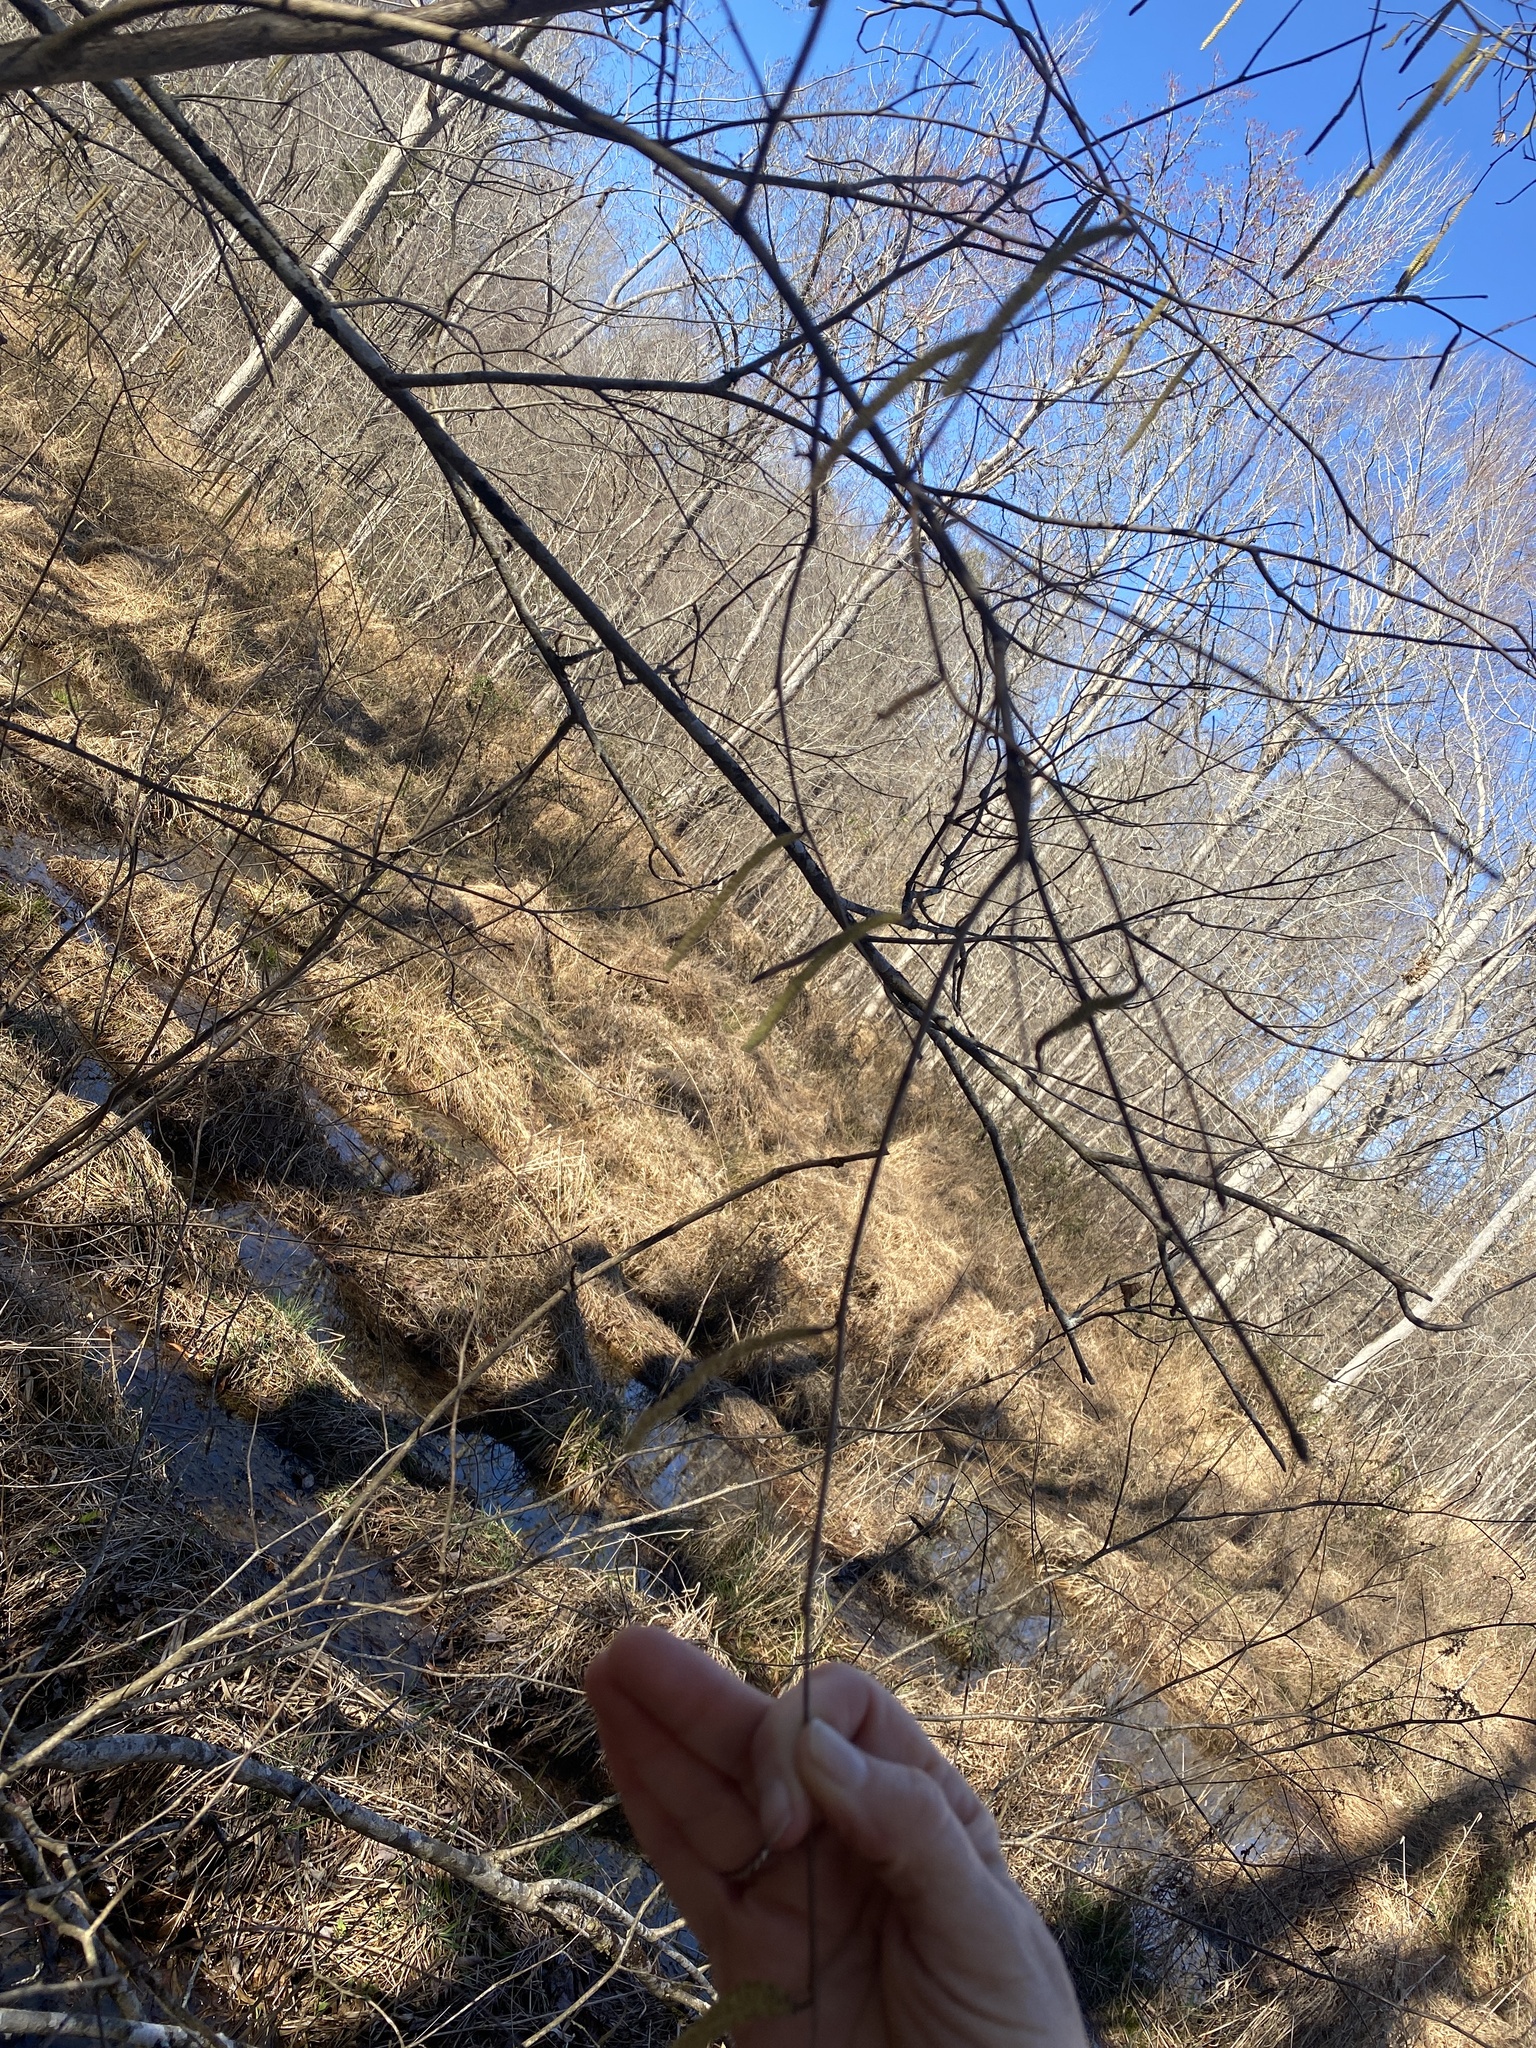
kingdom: Plantae
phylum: Tracheophyta
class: Magnoliopsida
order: Fagales
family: Betulaceae
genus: Corylus
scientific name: Corylus americana
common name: American hazel
